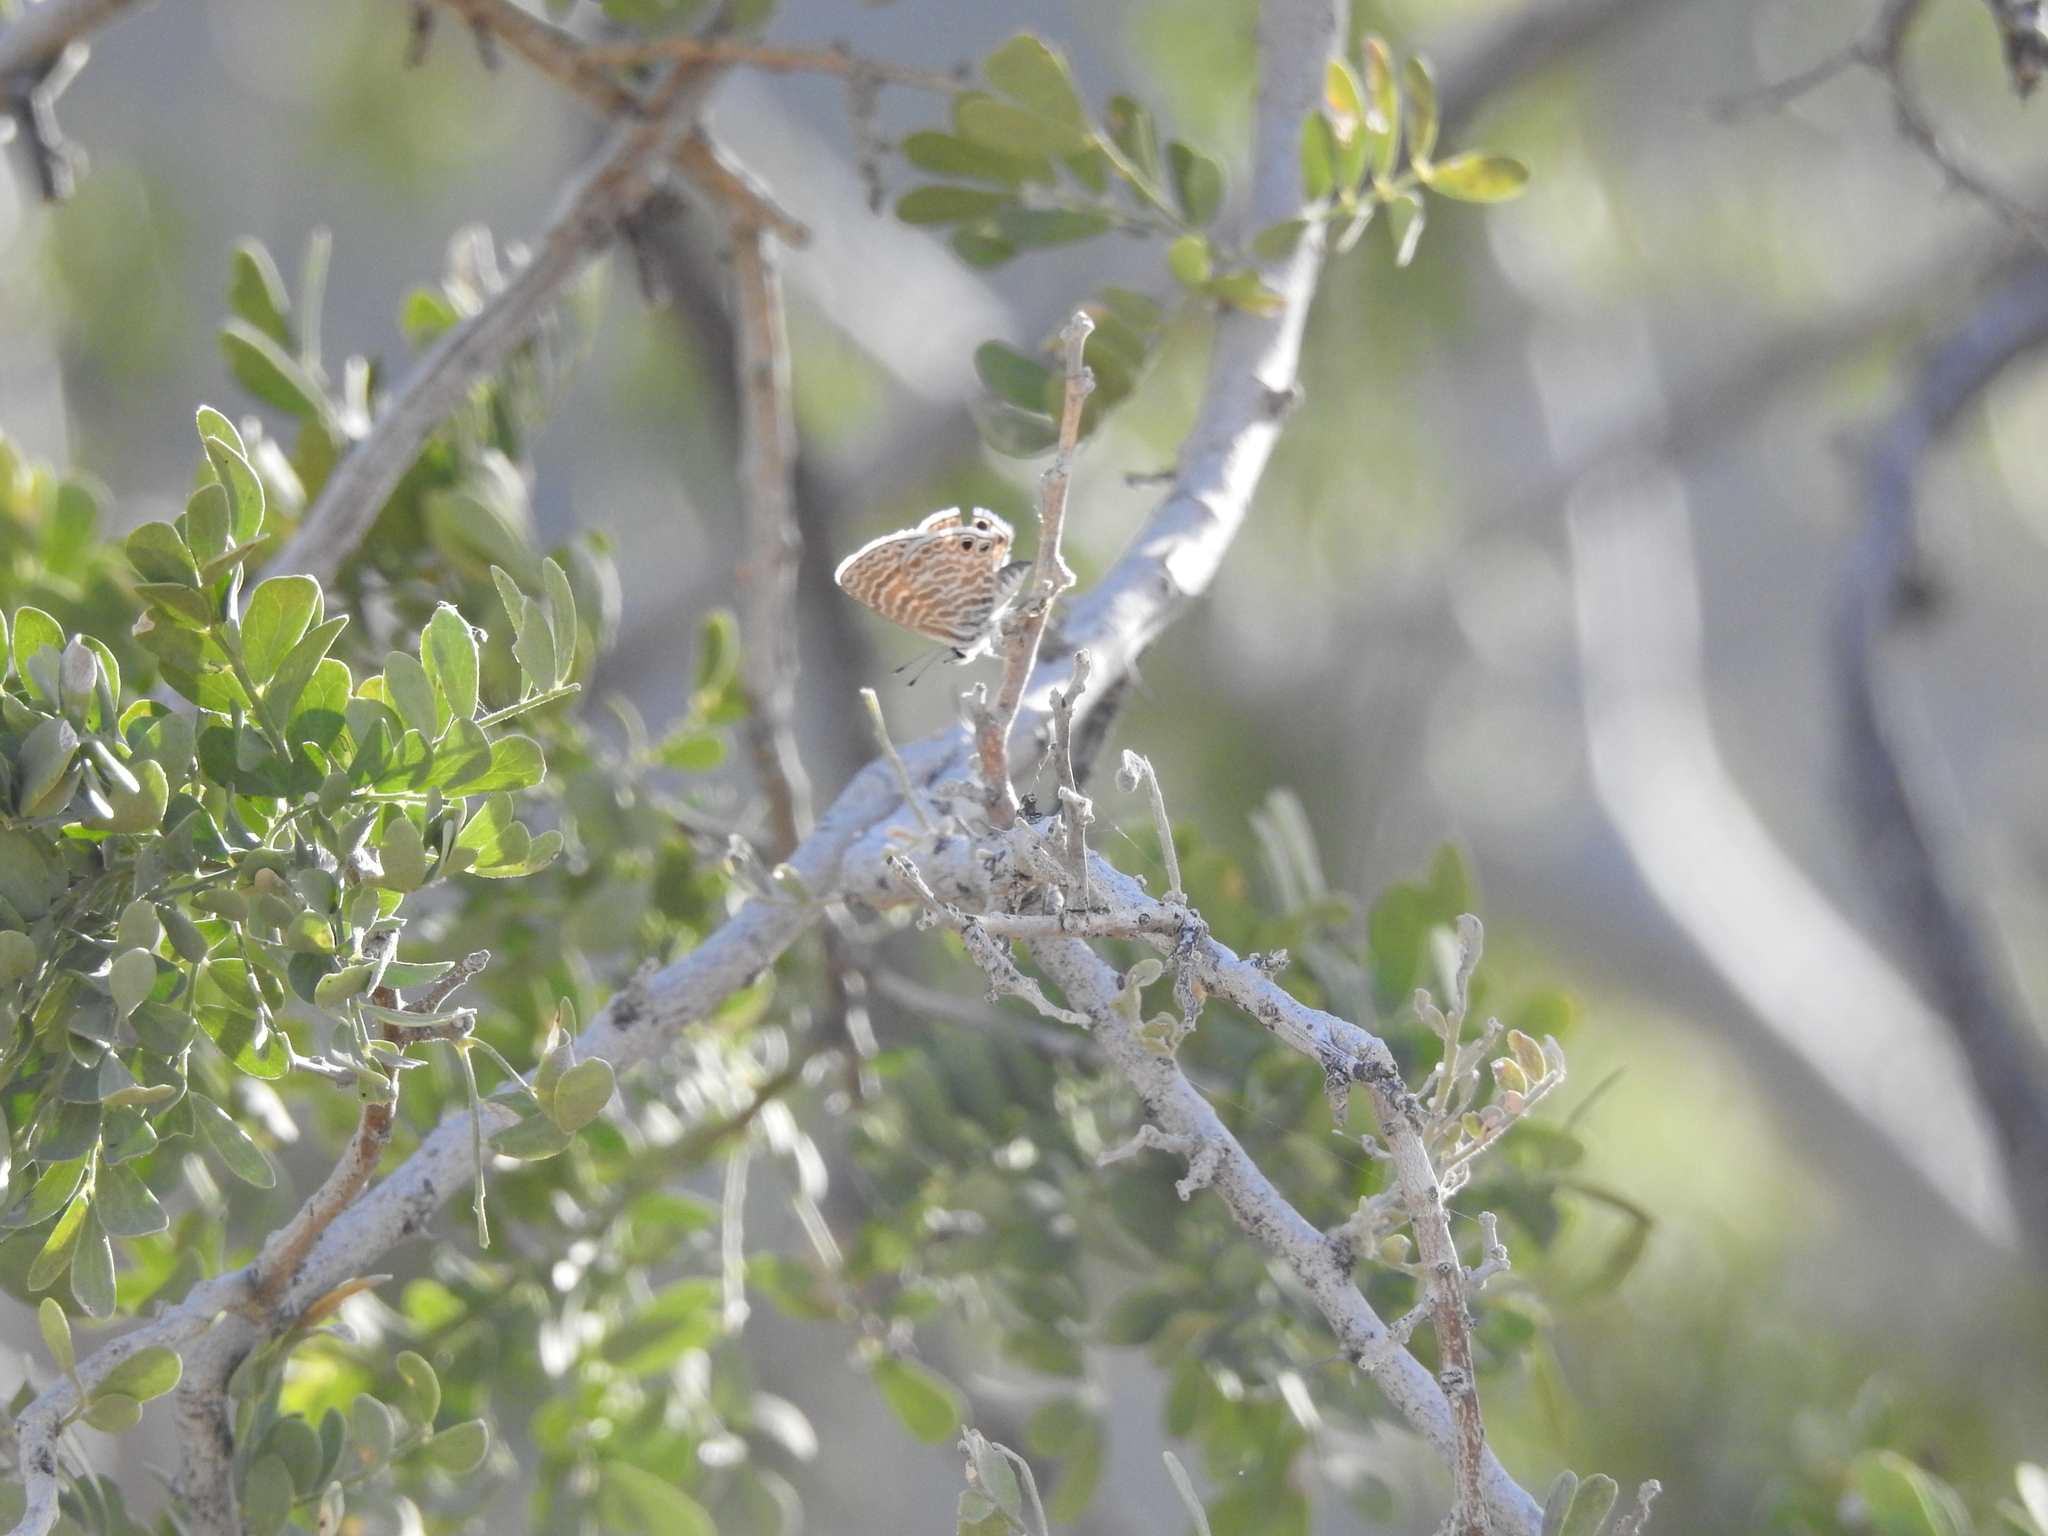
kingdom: Animalia
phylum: Arthropoda
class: Insecta
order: Lepidoptera
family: Lycaenidae
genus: Leptotes
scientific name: Leptotes marina
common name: Marine blue
